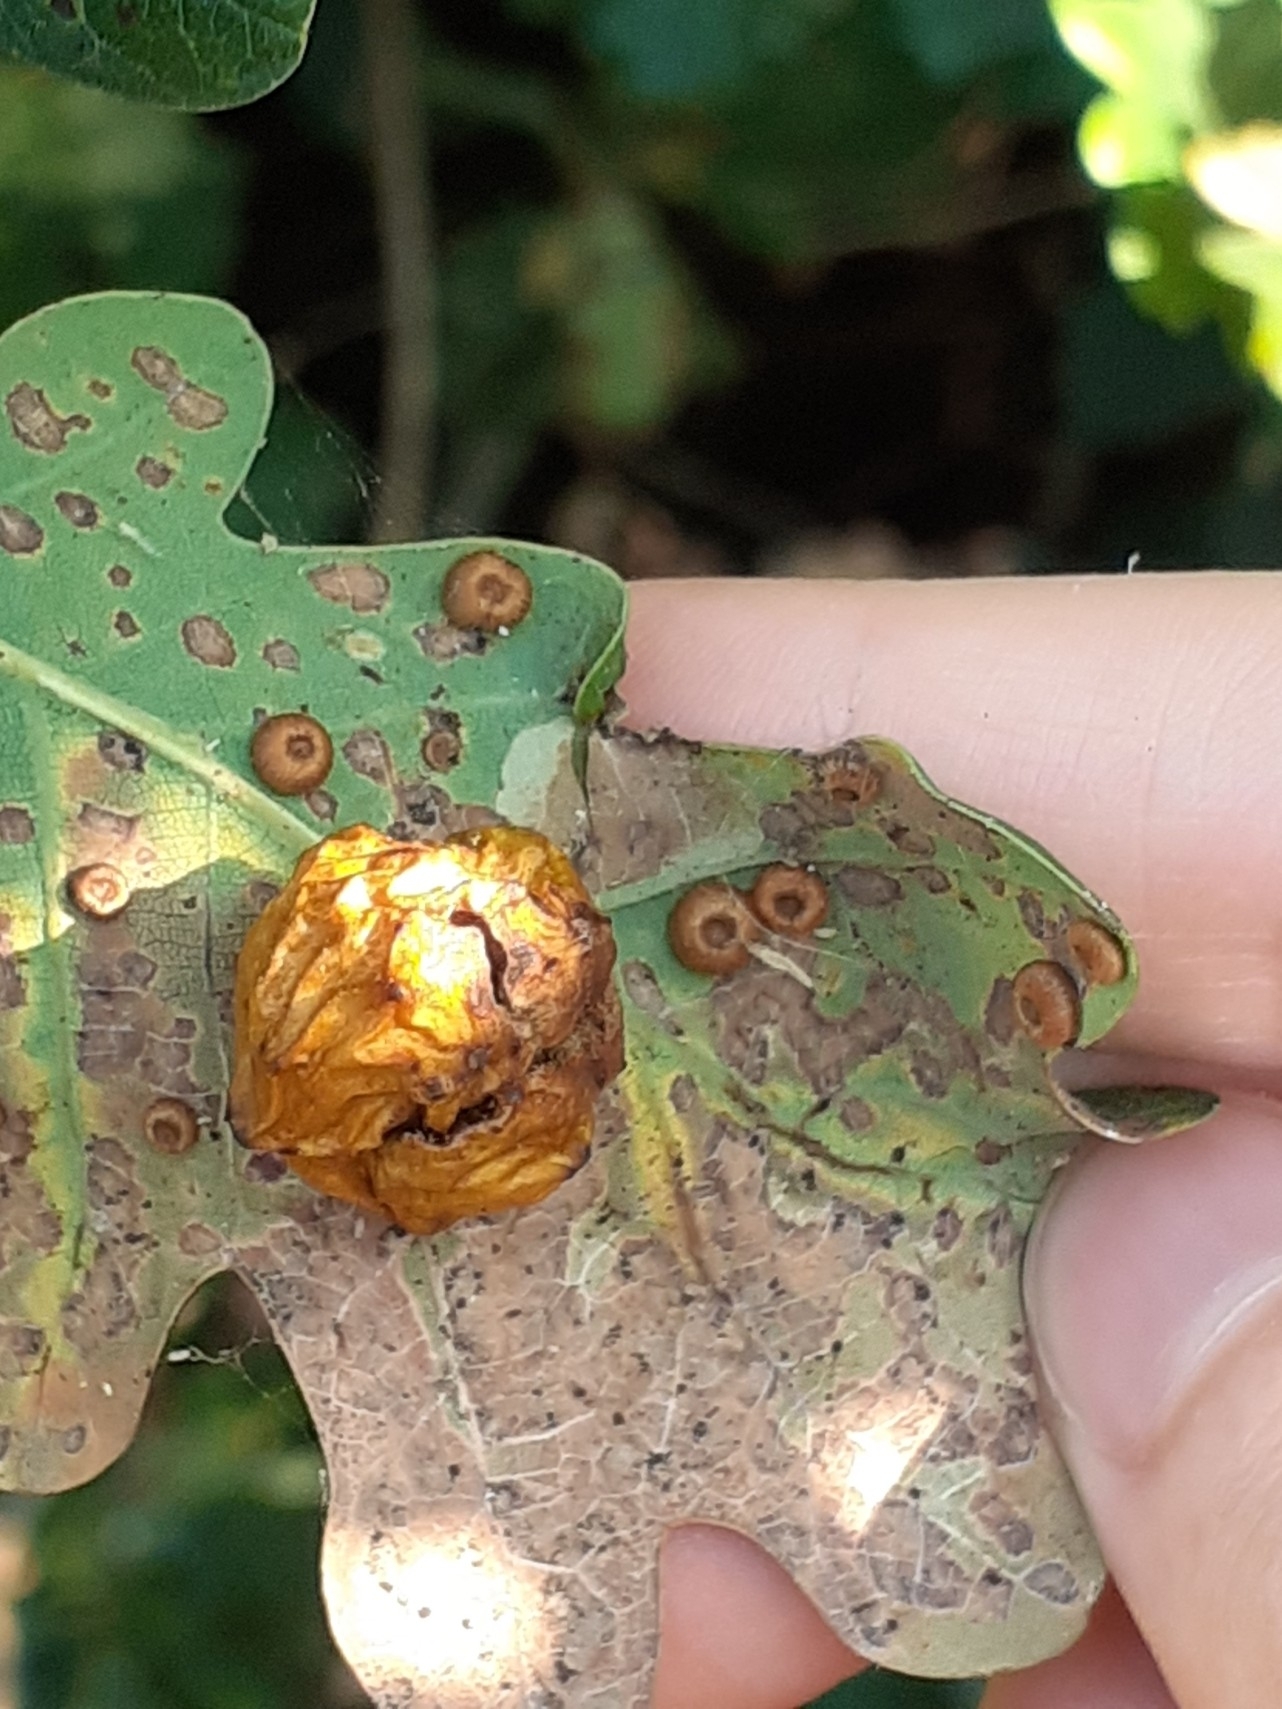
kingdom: Animalia
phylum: Arthropoda
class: Insecta
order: Hymenoptera
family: Cynipidae
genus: Cynips
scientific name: Cynips quercusfolii
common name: Cherry gall
